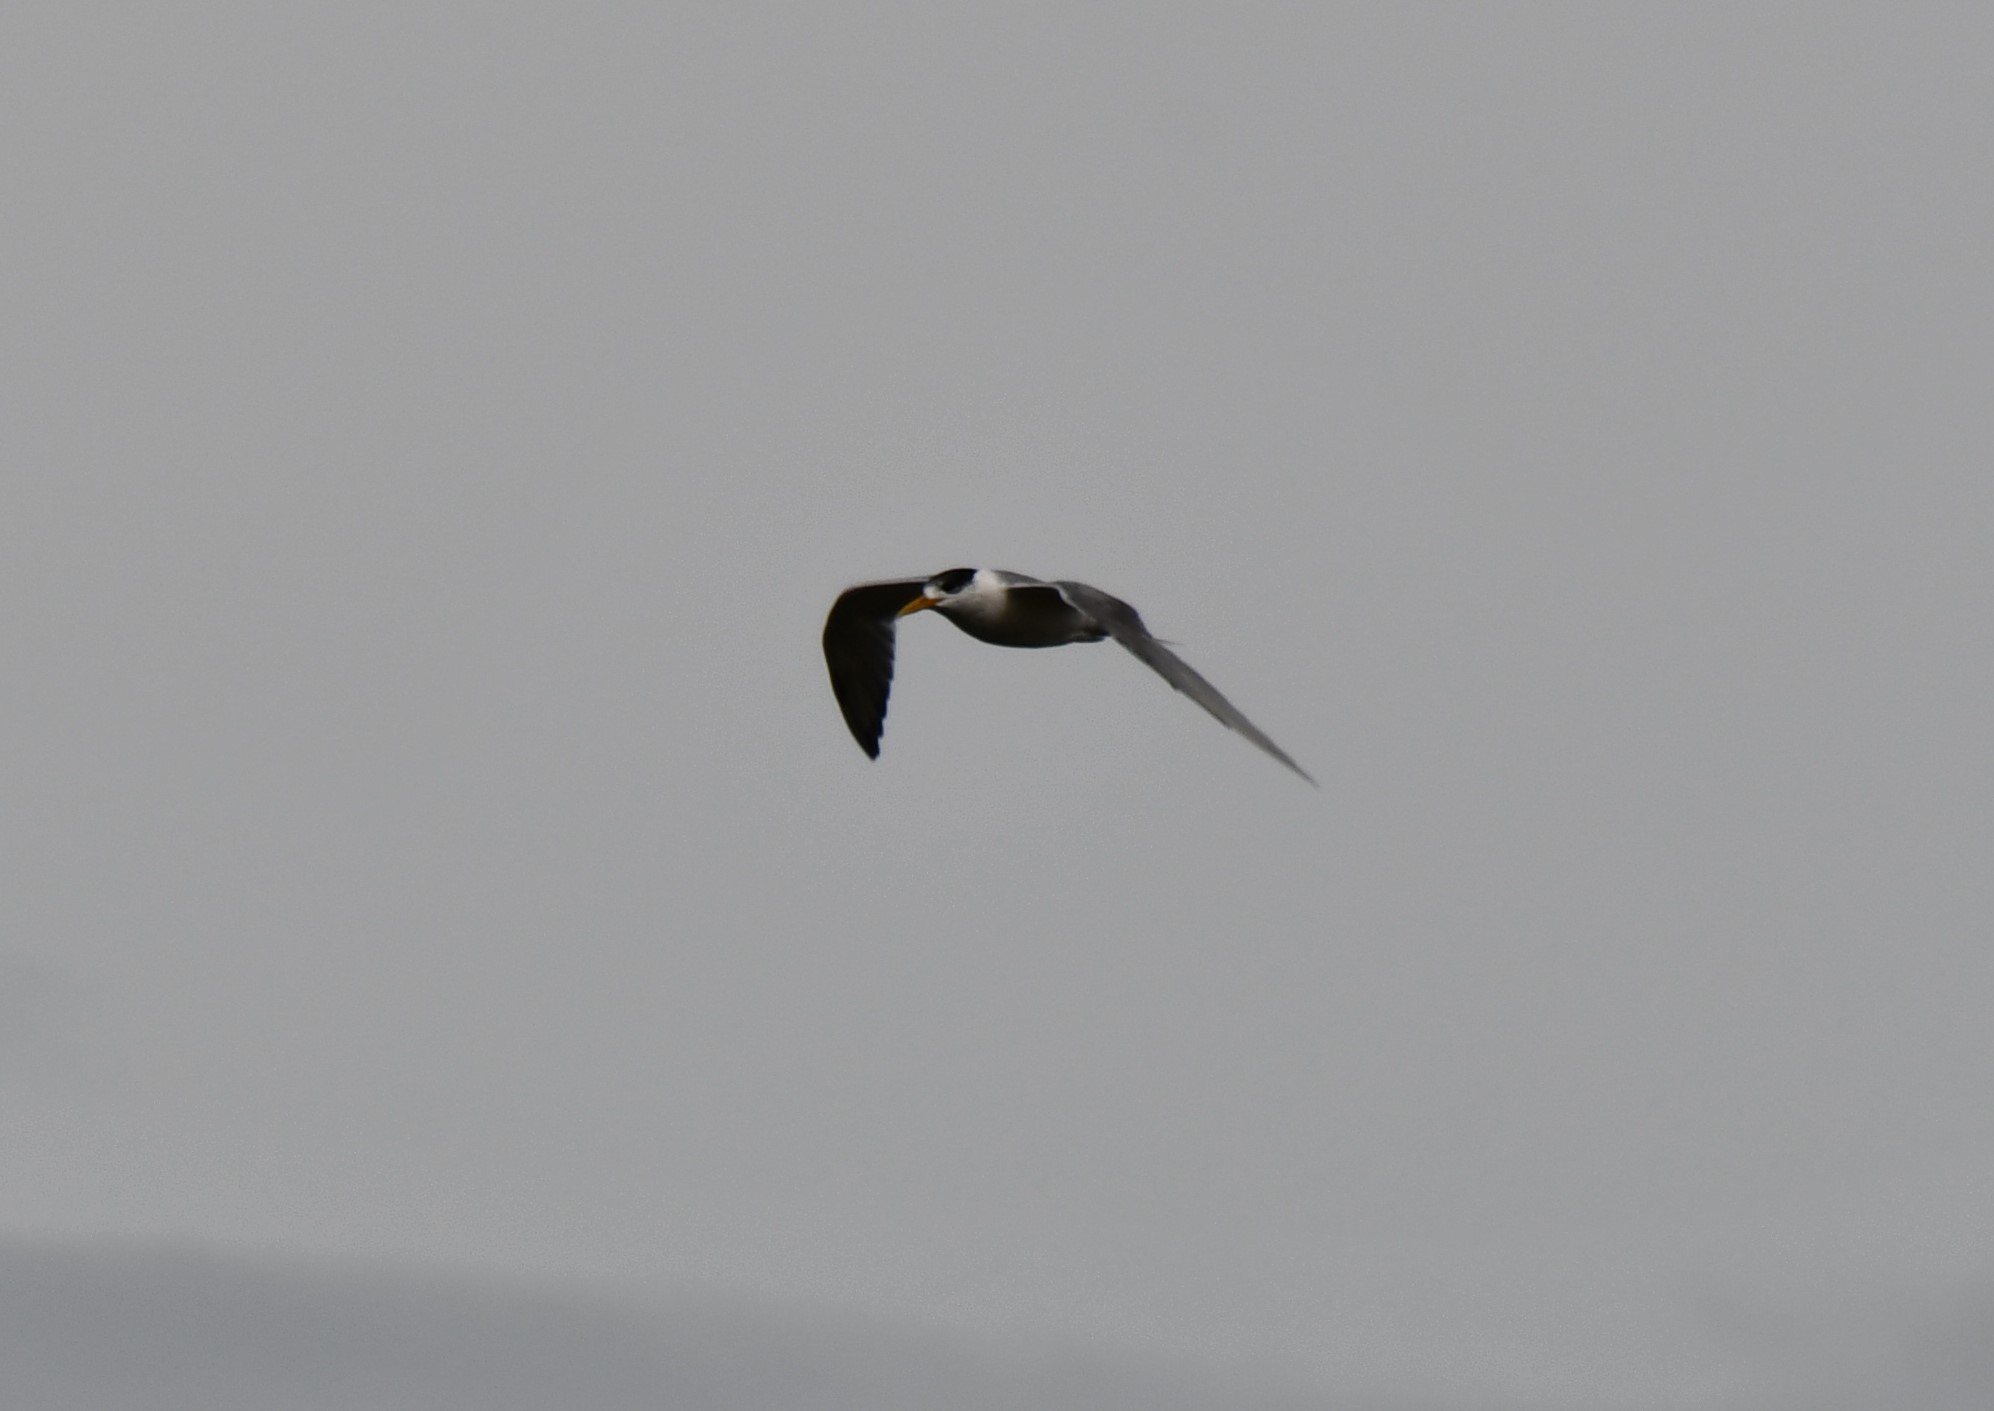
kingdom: Animalia
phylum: Chordata
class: Aves
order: Charadriiformes
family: Laridae
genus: Thalasseus
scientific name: Thalasseus bergii
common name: Greater crested tern
